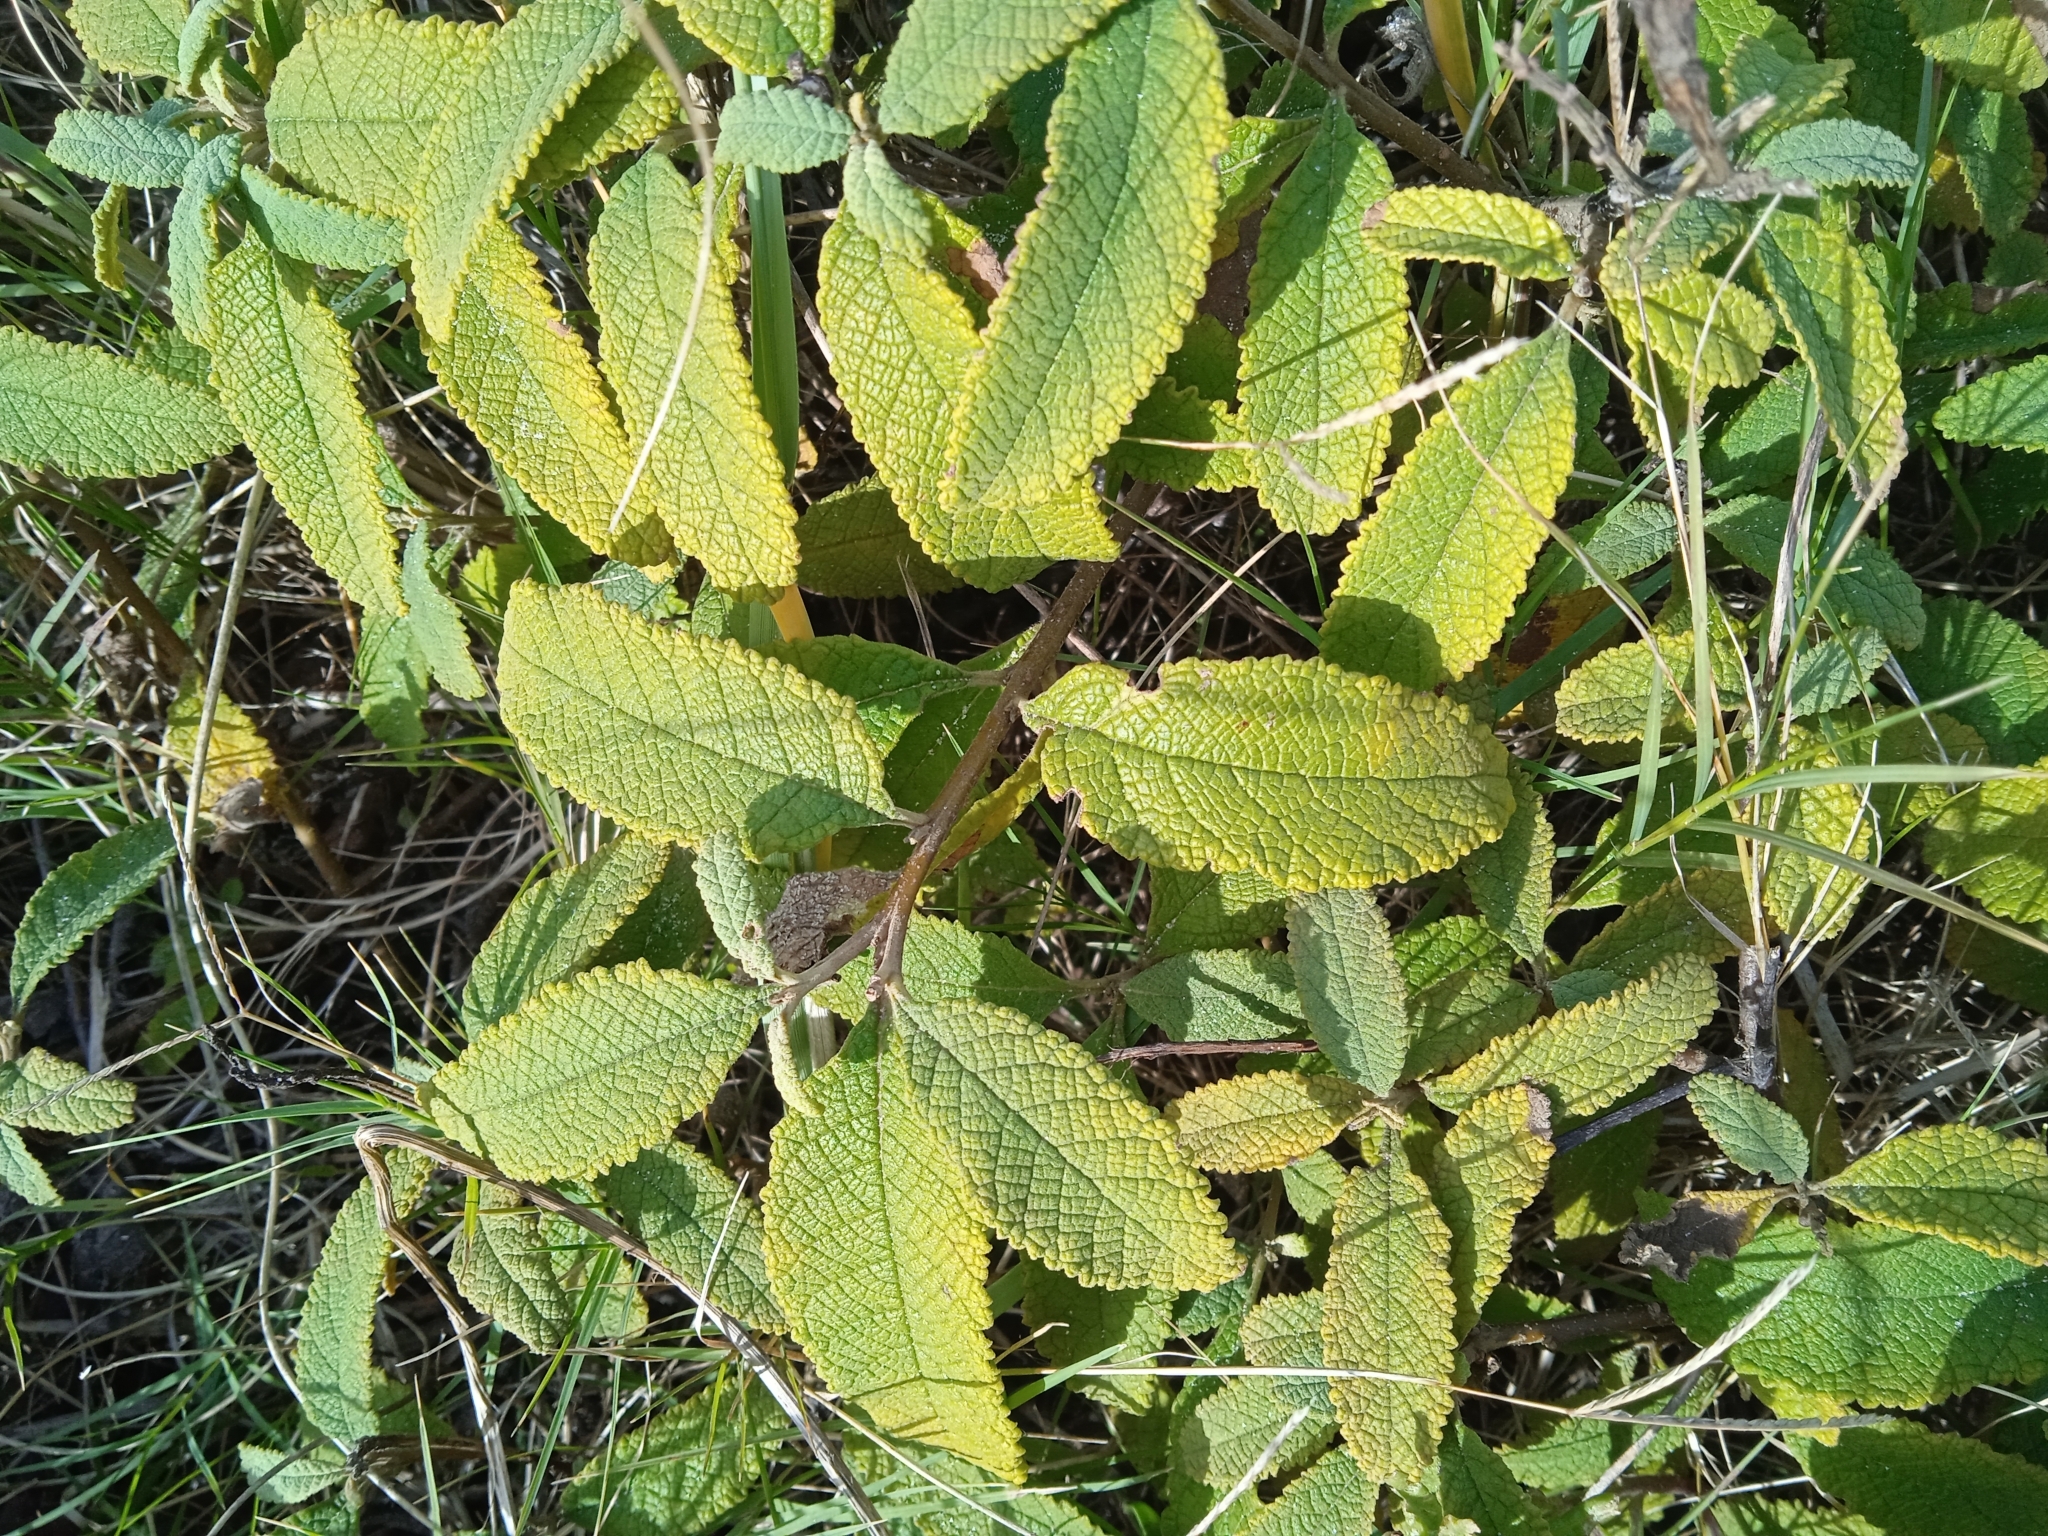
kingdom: Plantae
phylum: Tracheophyta
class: Magnoliopsida
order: Boraginales
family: Cordiaceae
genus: Varronia
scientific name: Varronia curassavica
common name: Black sage
